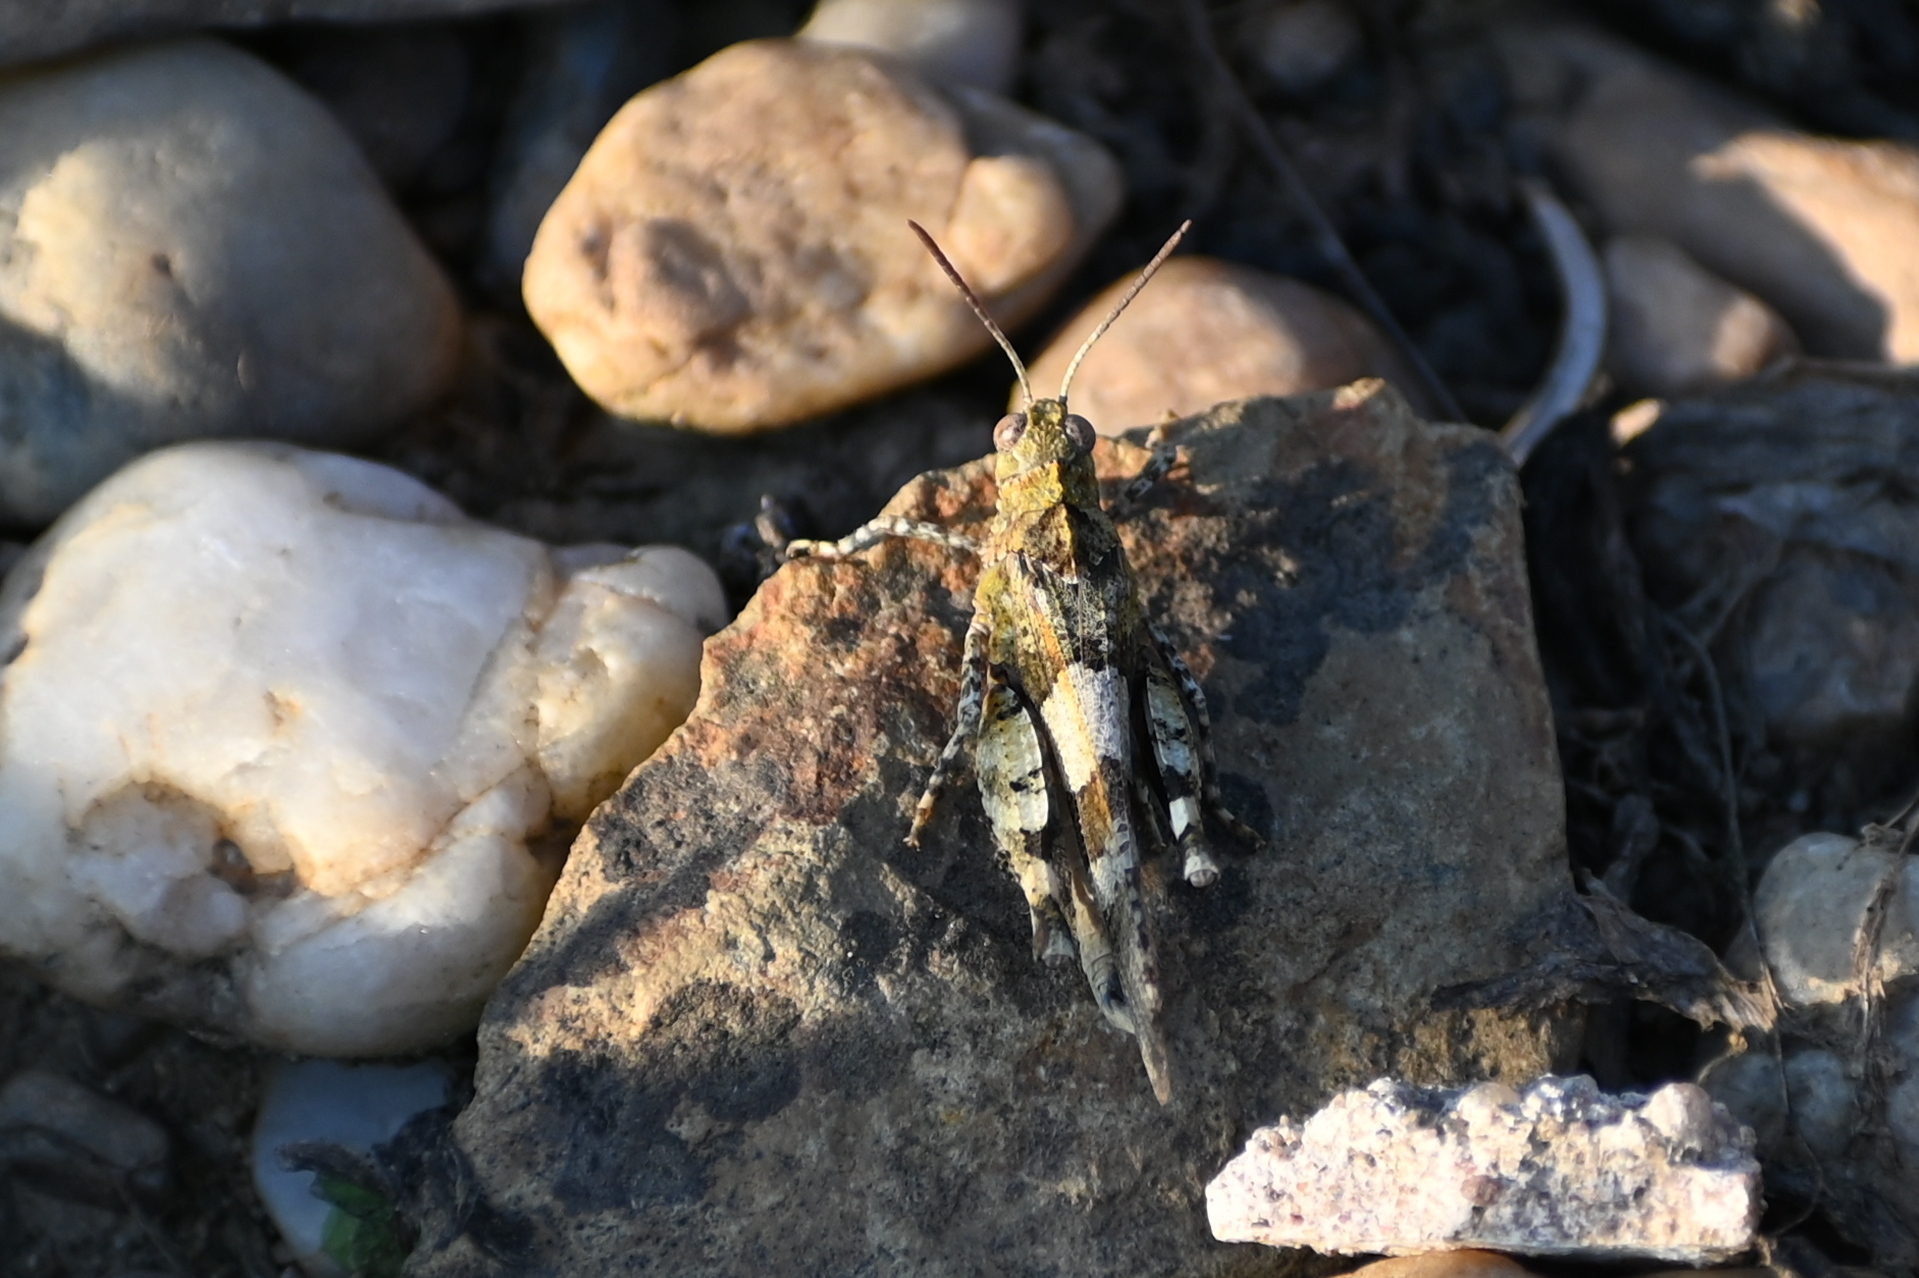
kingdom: Animalia
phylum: Arthropoda
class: Insecta
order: Orthoptera
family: Acrididae
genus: Oedipoda
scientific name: Oedipoda caerulescens
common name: Blue-winged grasshopper
